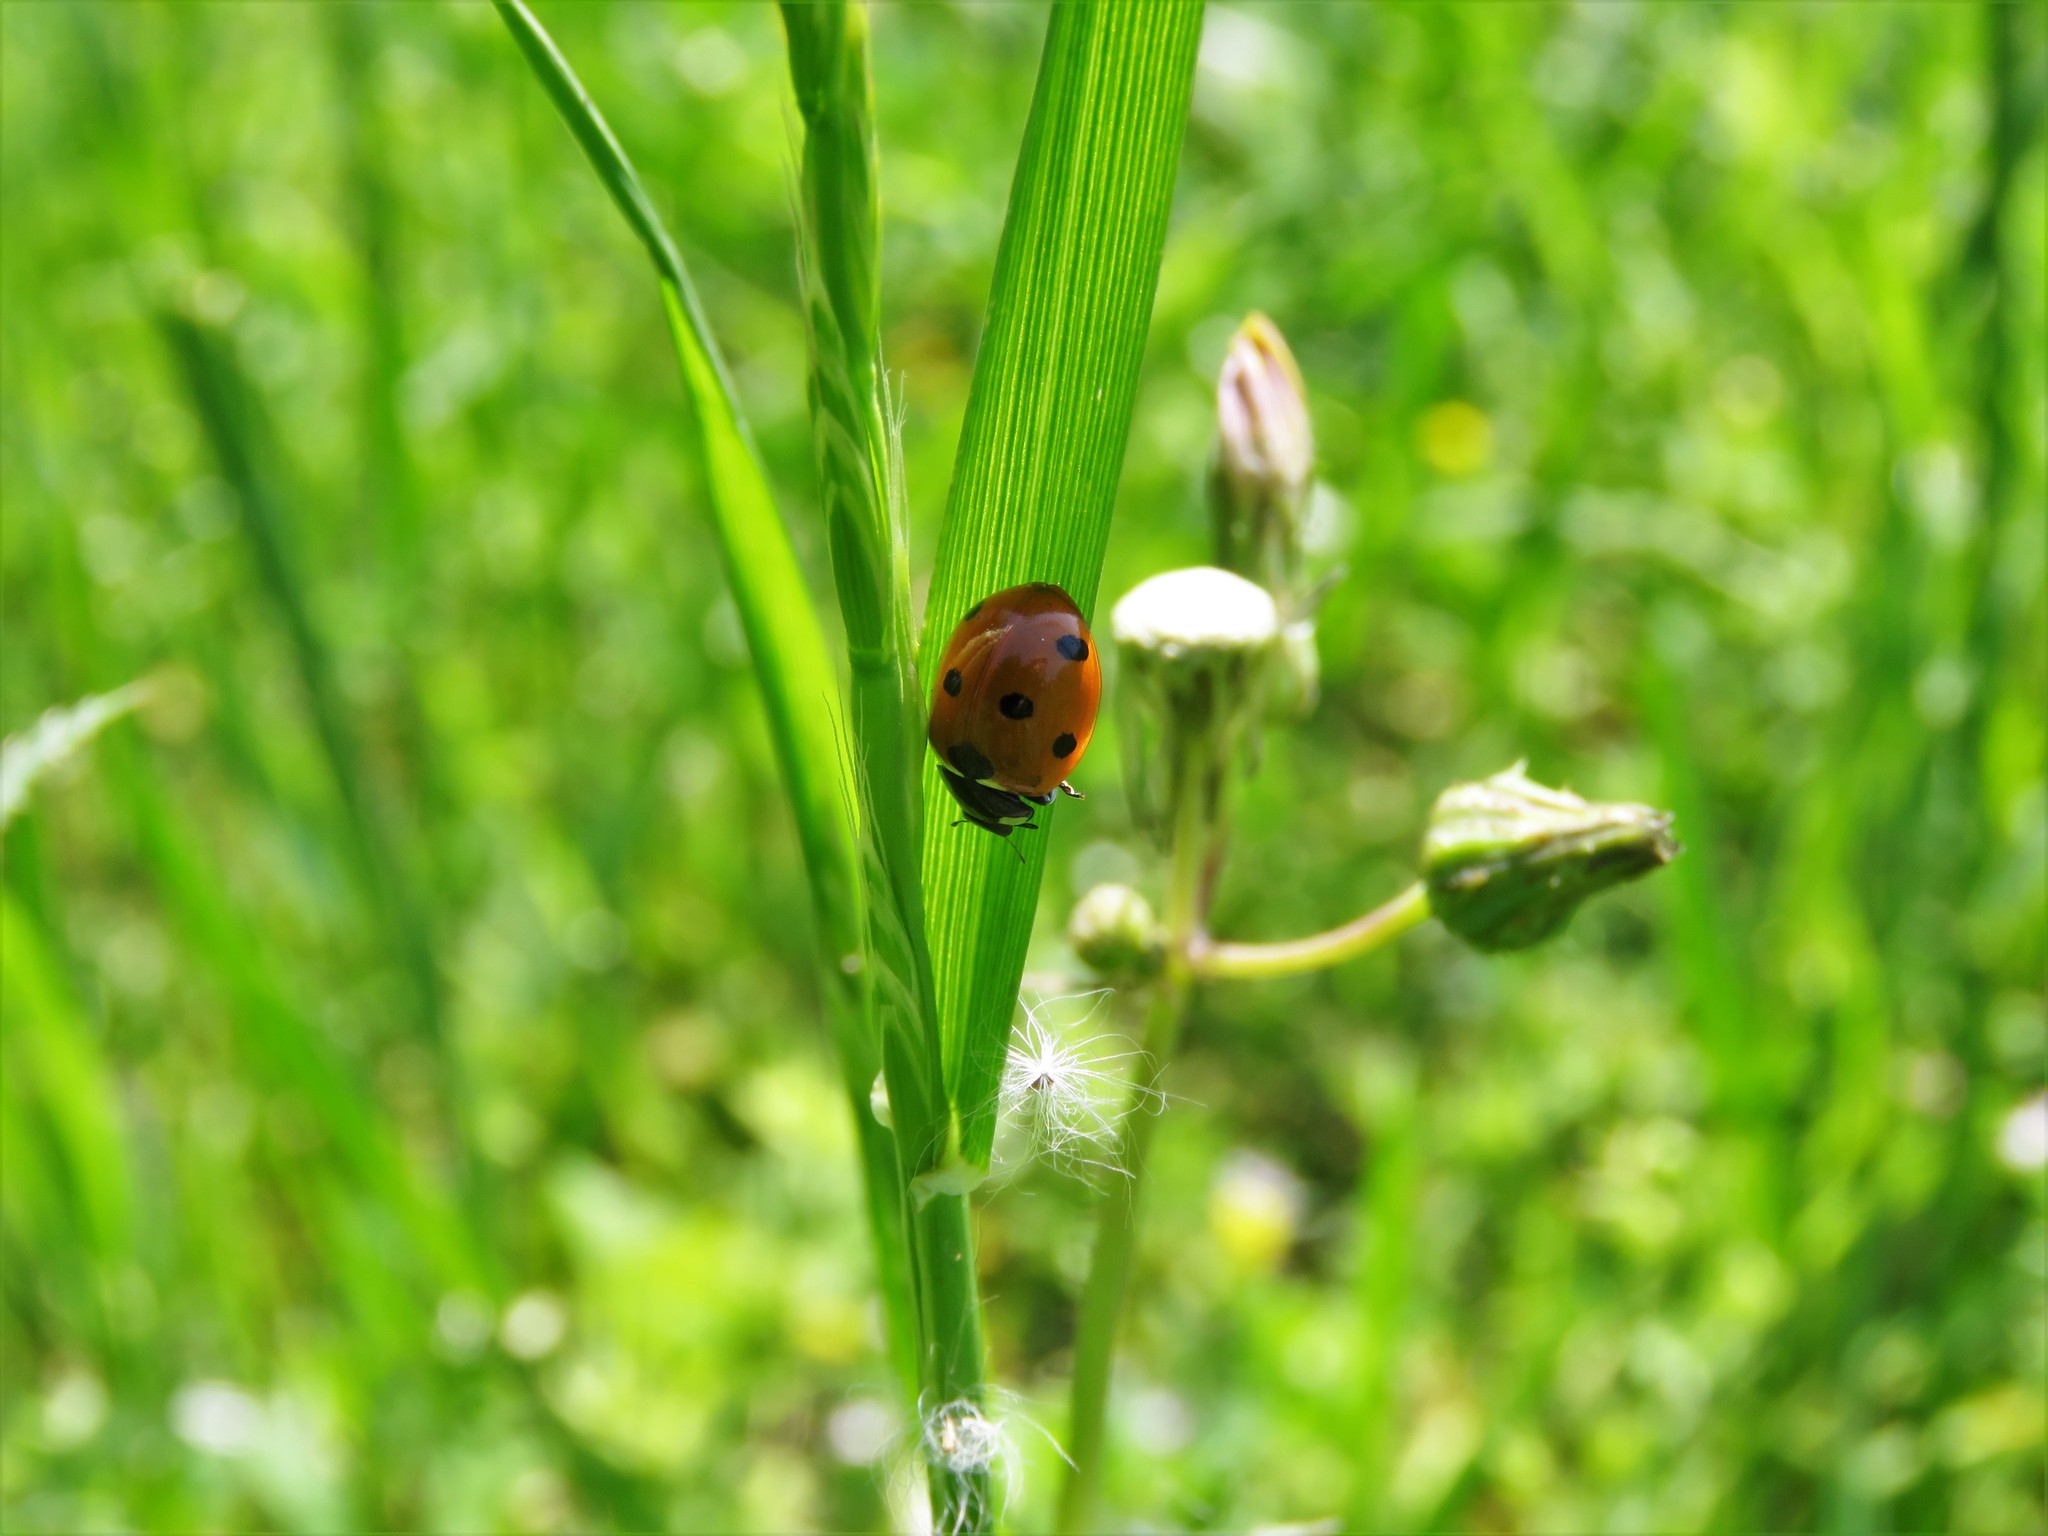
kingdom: Animalia
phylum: Arthropoda
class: Insecta
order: Coleoptera
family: Coccinellidae
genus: Coccinella
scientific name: Coccinella septempunctata
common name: Sevenspotted lady beetle
